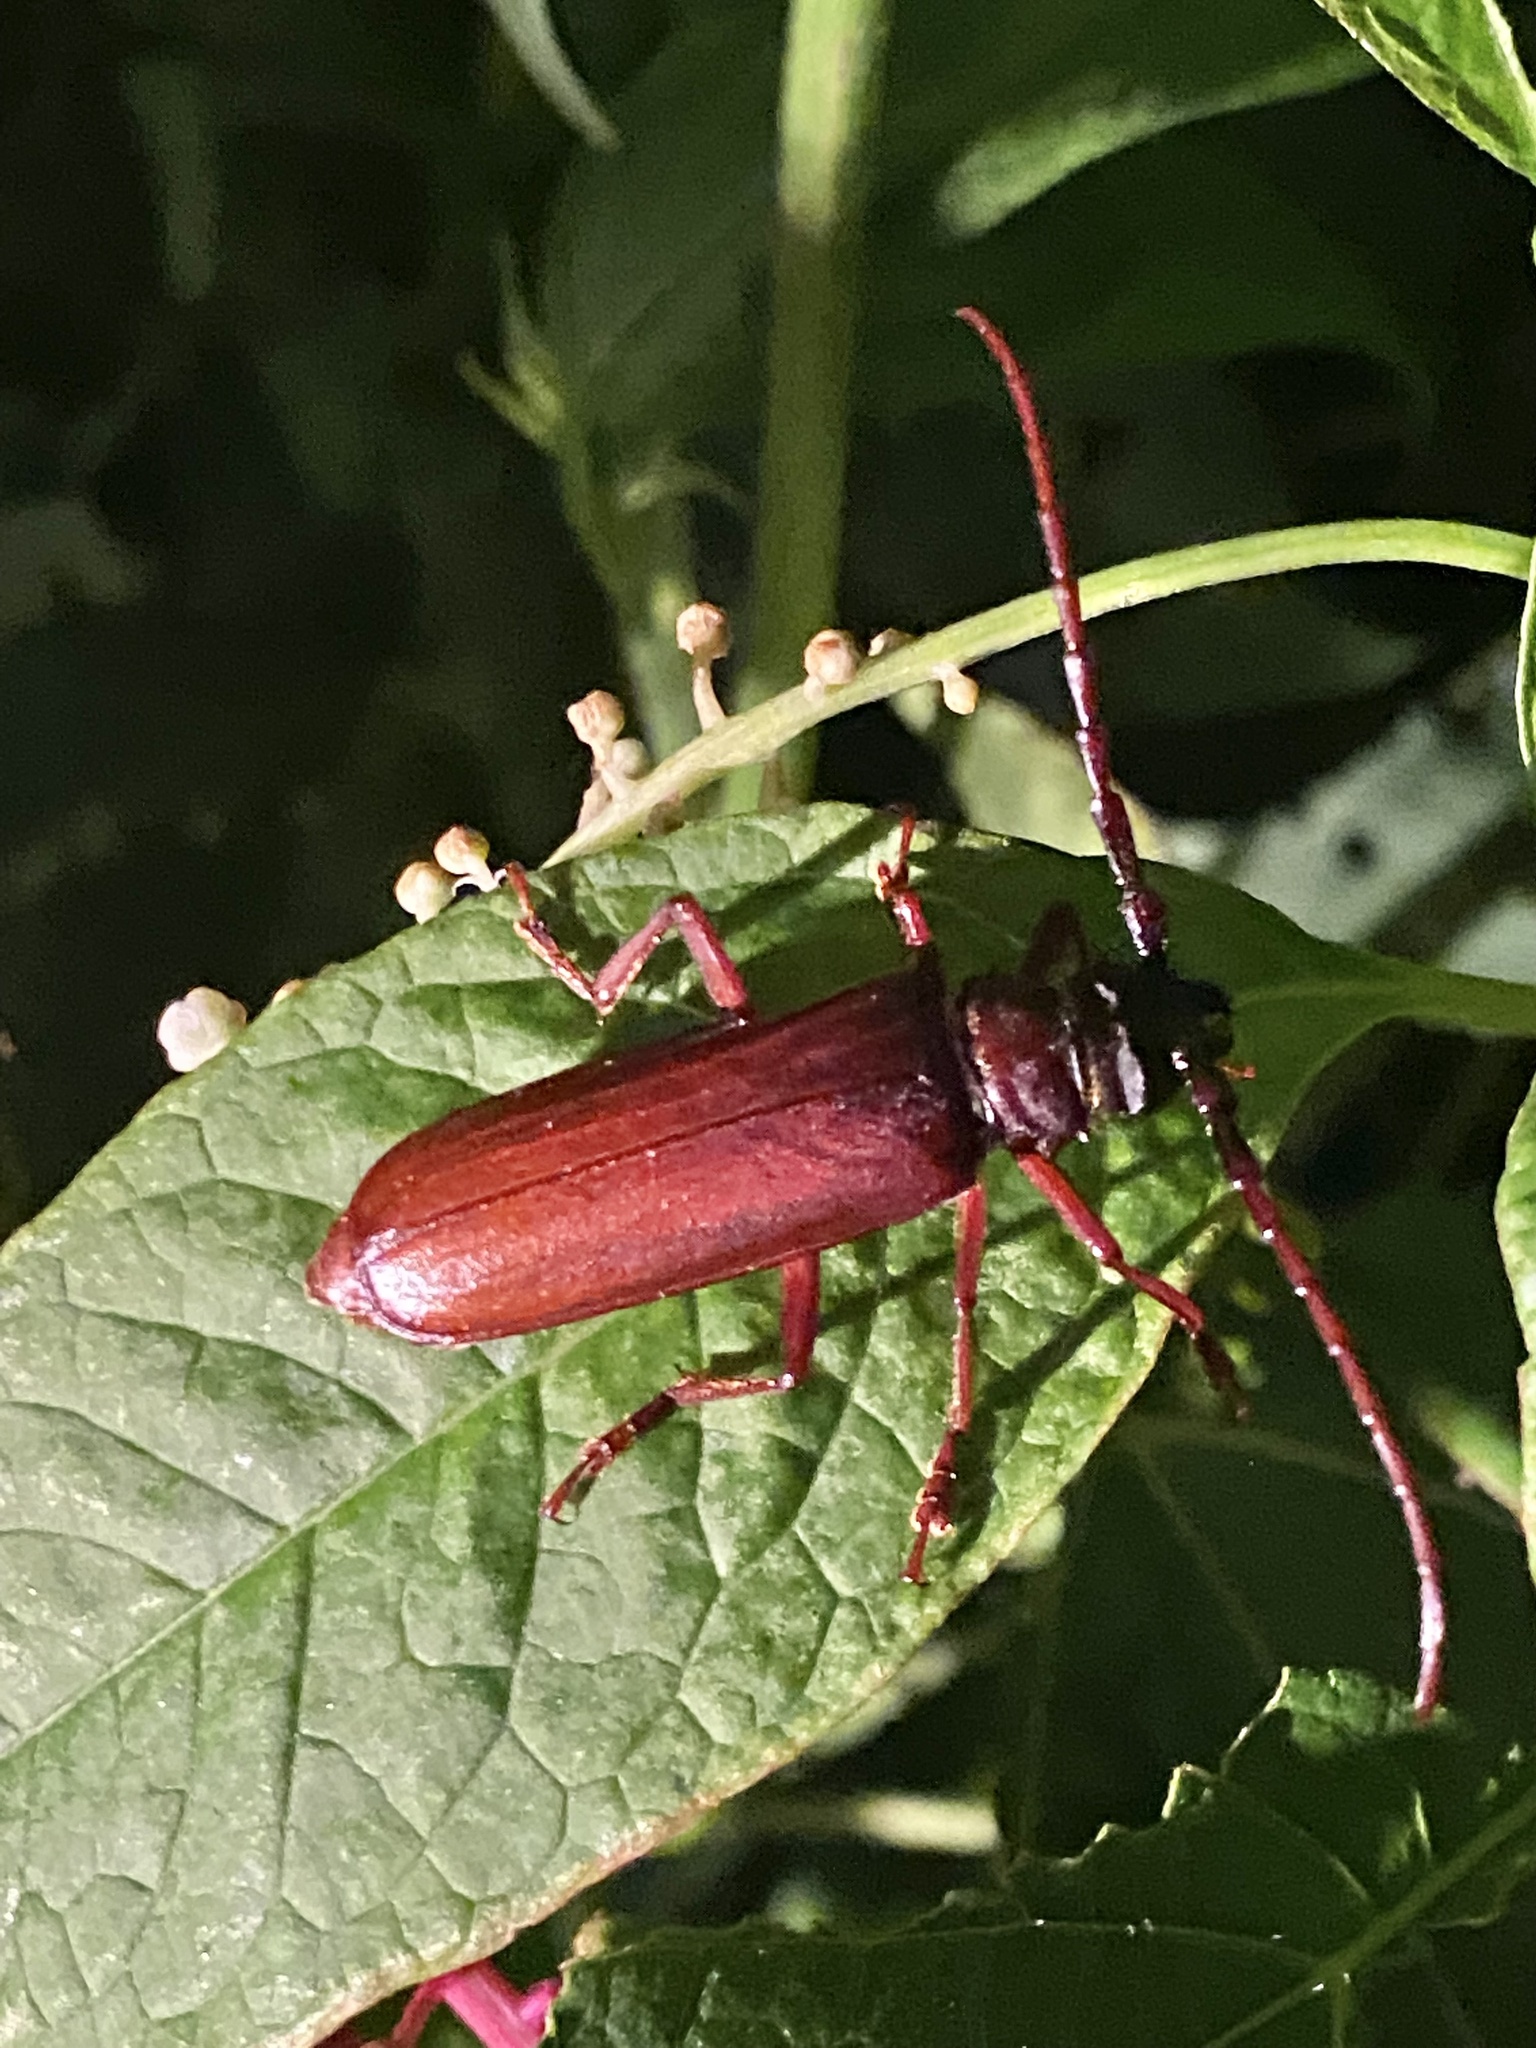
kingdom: Animalia
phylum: Arthropoda
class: Insecta
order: Coleoptera
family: Cerambycidae
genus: Orthosoma
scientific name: Orthosoma brunneum
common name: Brown prionid beetle
